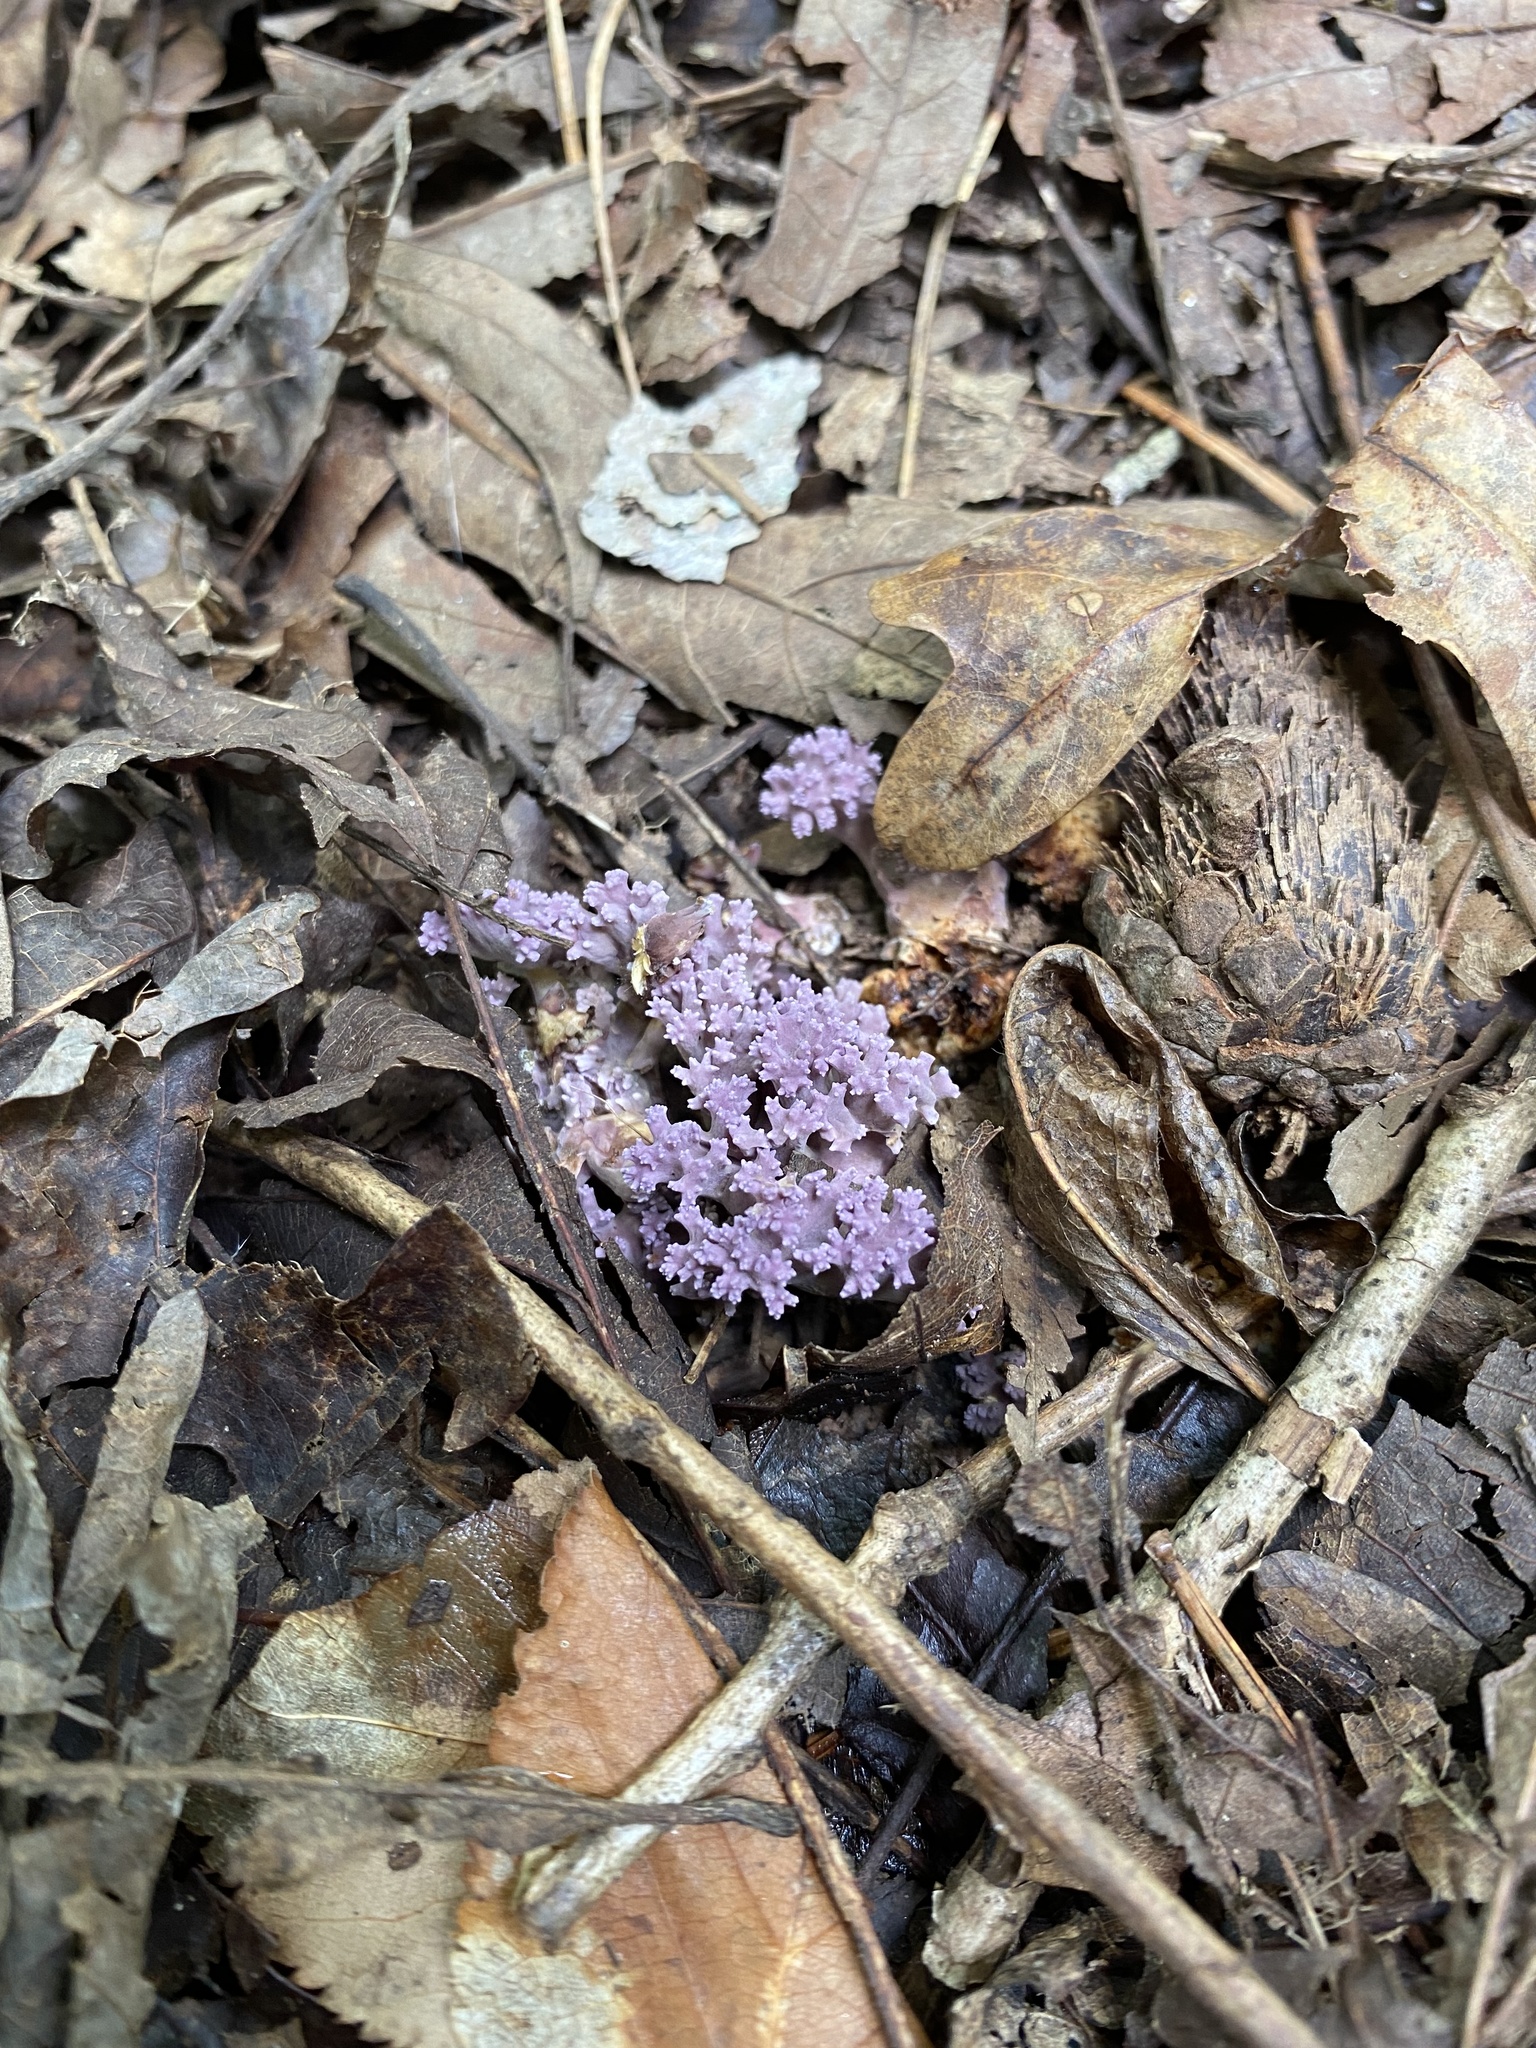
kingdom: Fungi
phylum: Basidiomycota
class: Agaricomycetes
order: Agaricales
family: Clavariaceae
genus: Clavaria
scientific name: Clavaria zollingeri
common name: Violet coral
